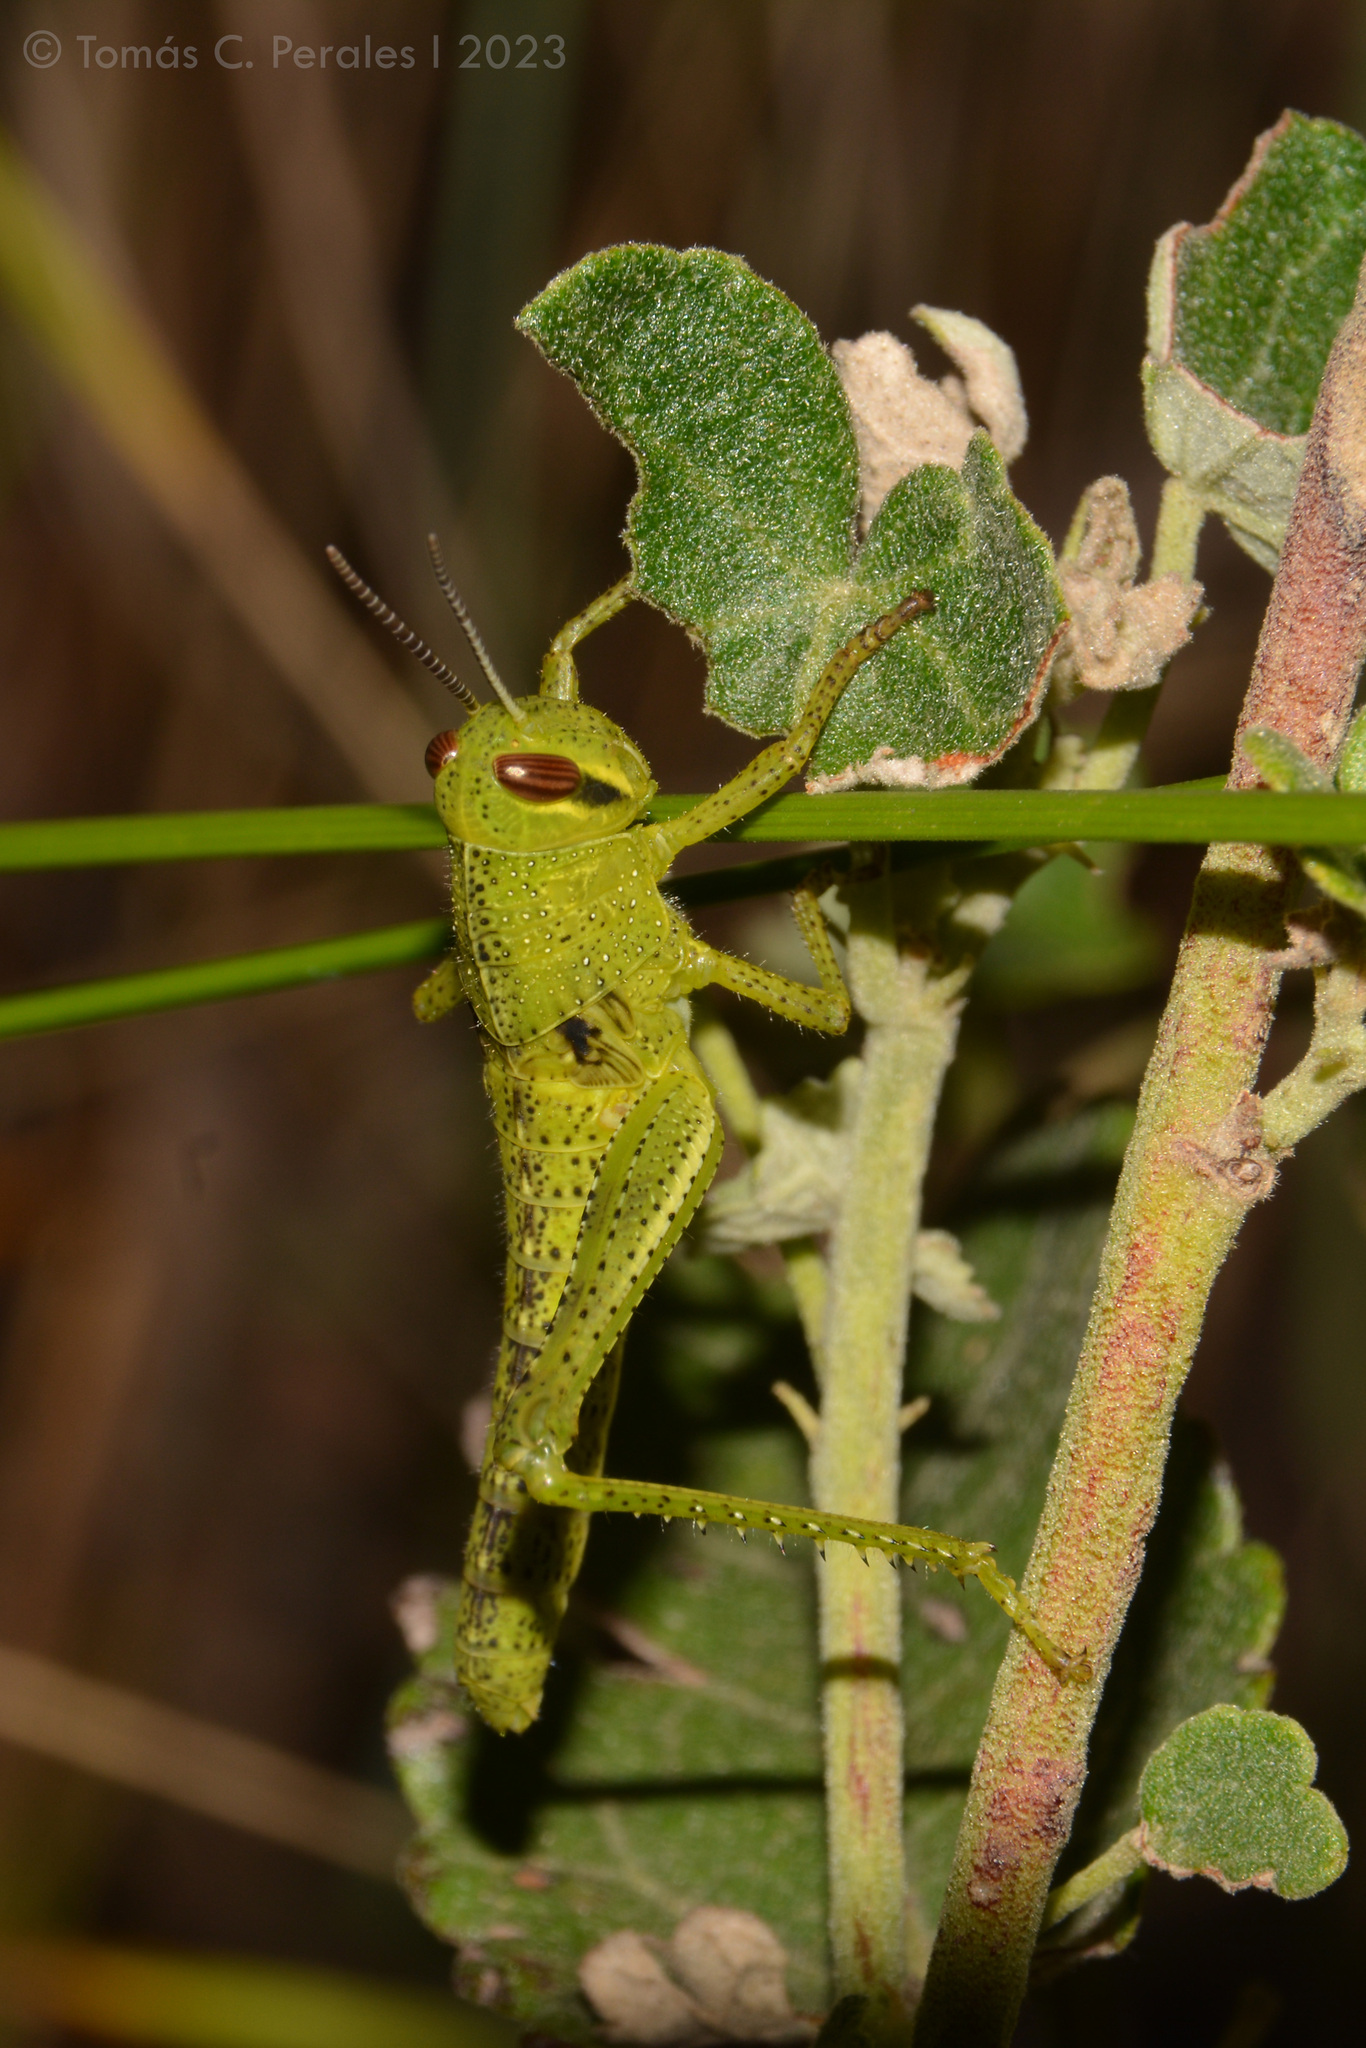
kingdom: Animalia
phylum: Arthropoda
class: Insecta
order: Orthoptera
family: Acrididae
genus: Schistocerca
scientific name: Schistocerca cancellata
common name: South american locust
